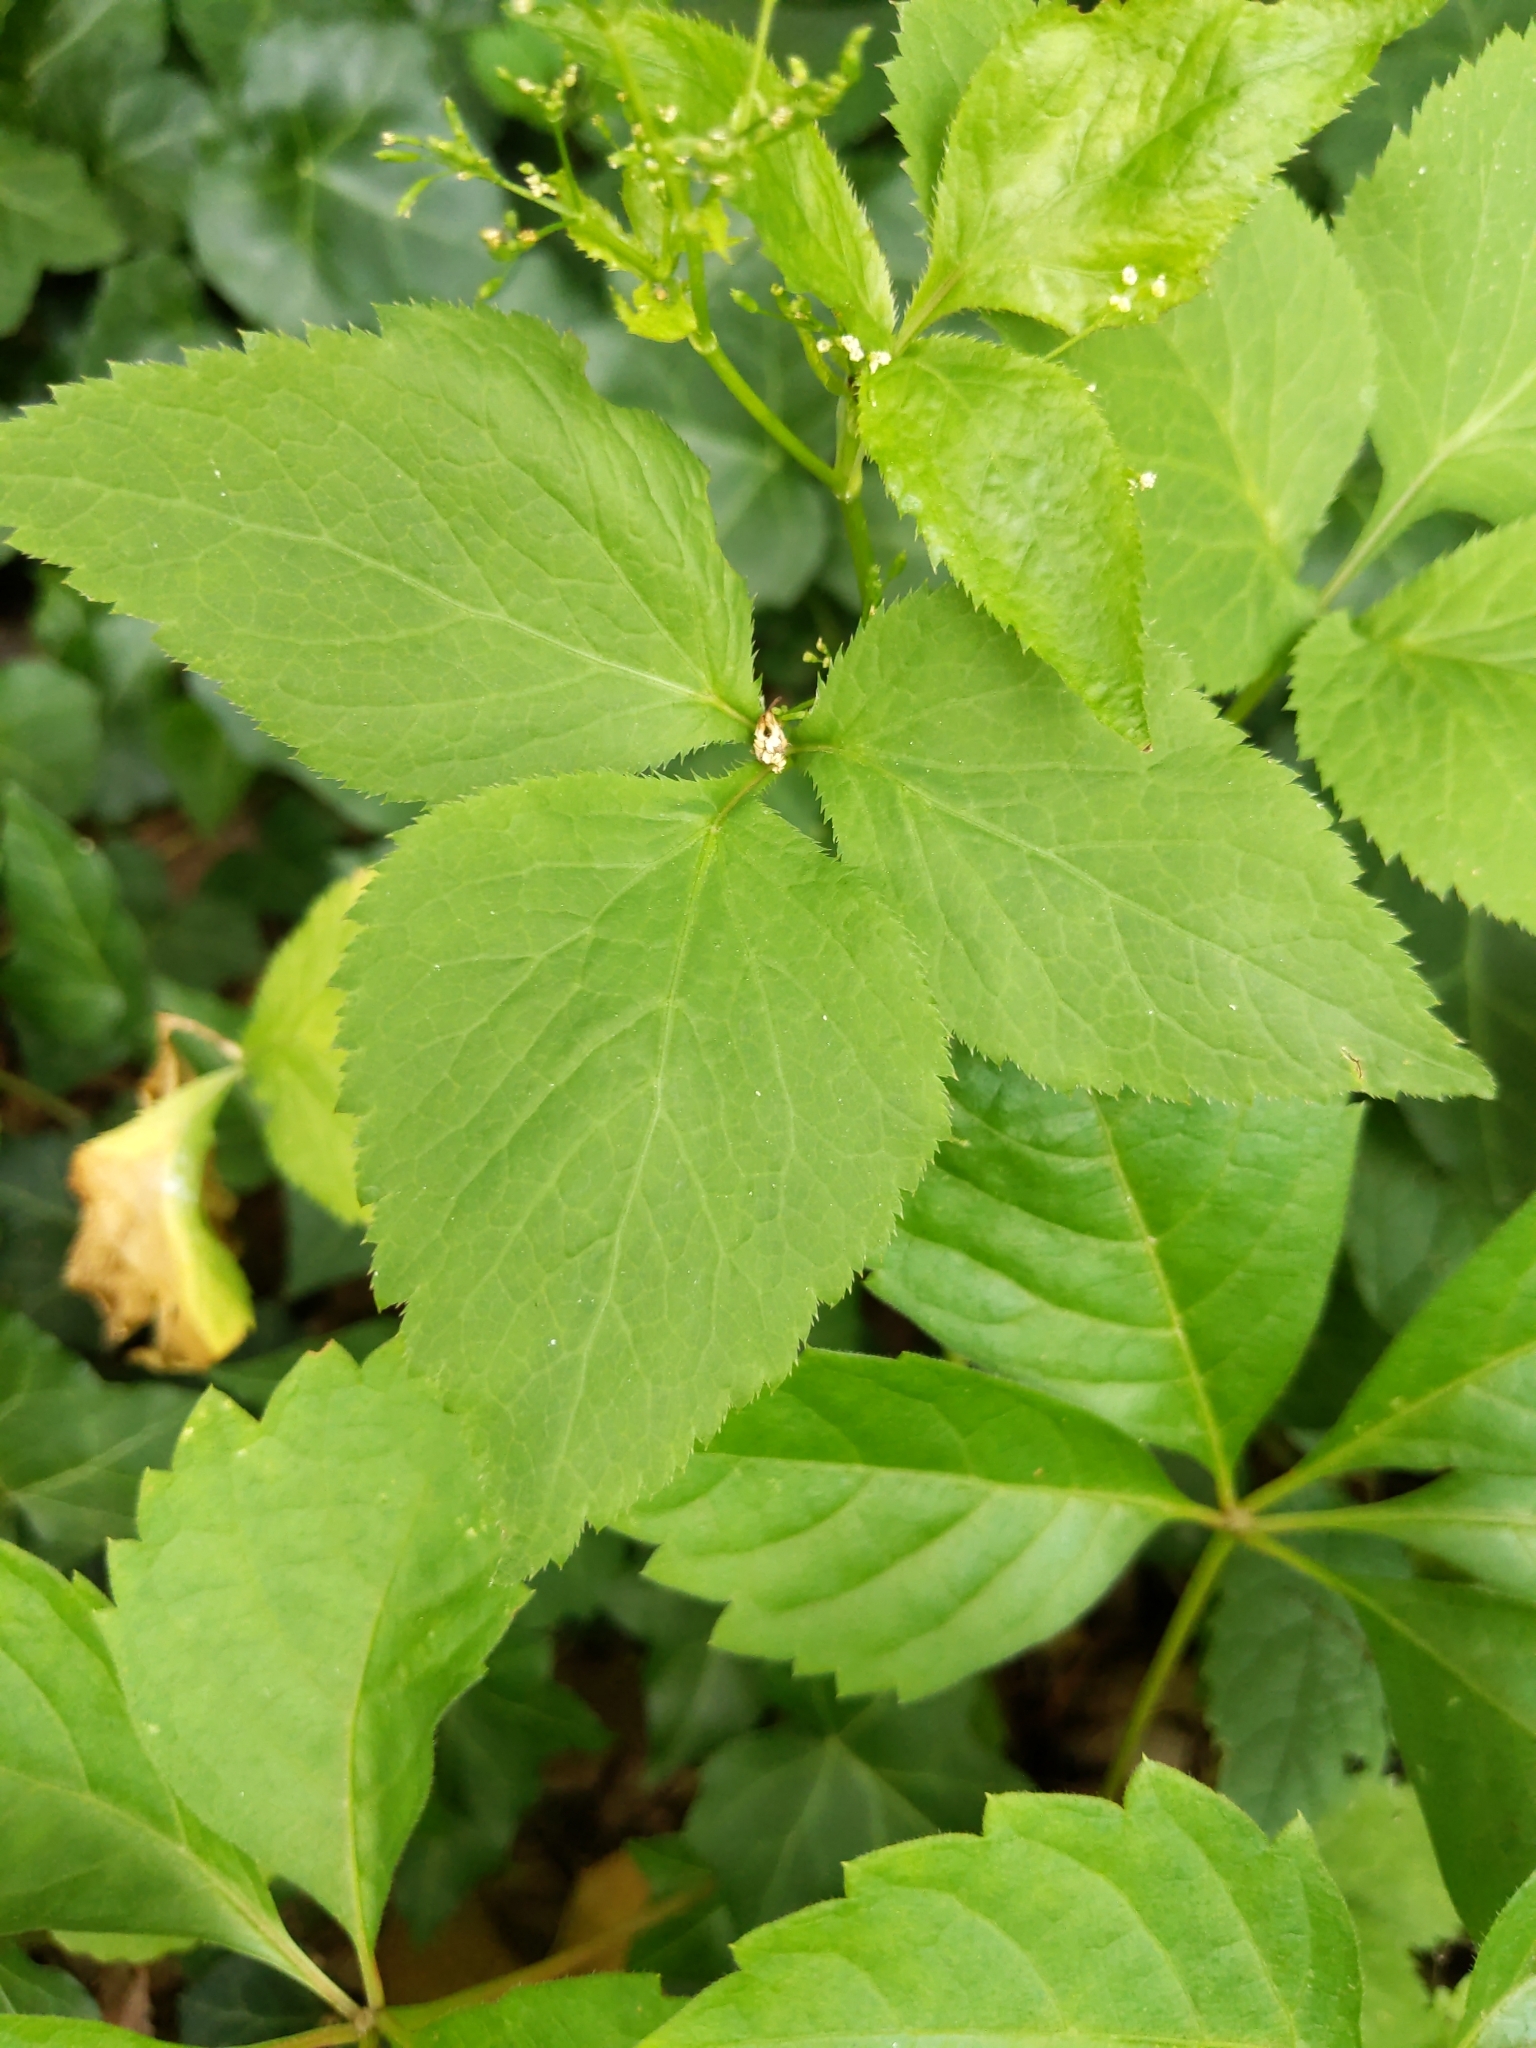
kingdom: Plantae
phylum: Tracheophyta
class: Magnoliopsida
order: Apiales
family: Apiaceae
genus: Cryptotaenia
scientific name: Cryptotaenia canadensis
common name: Honewort
